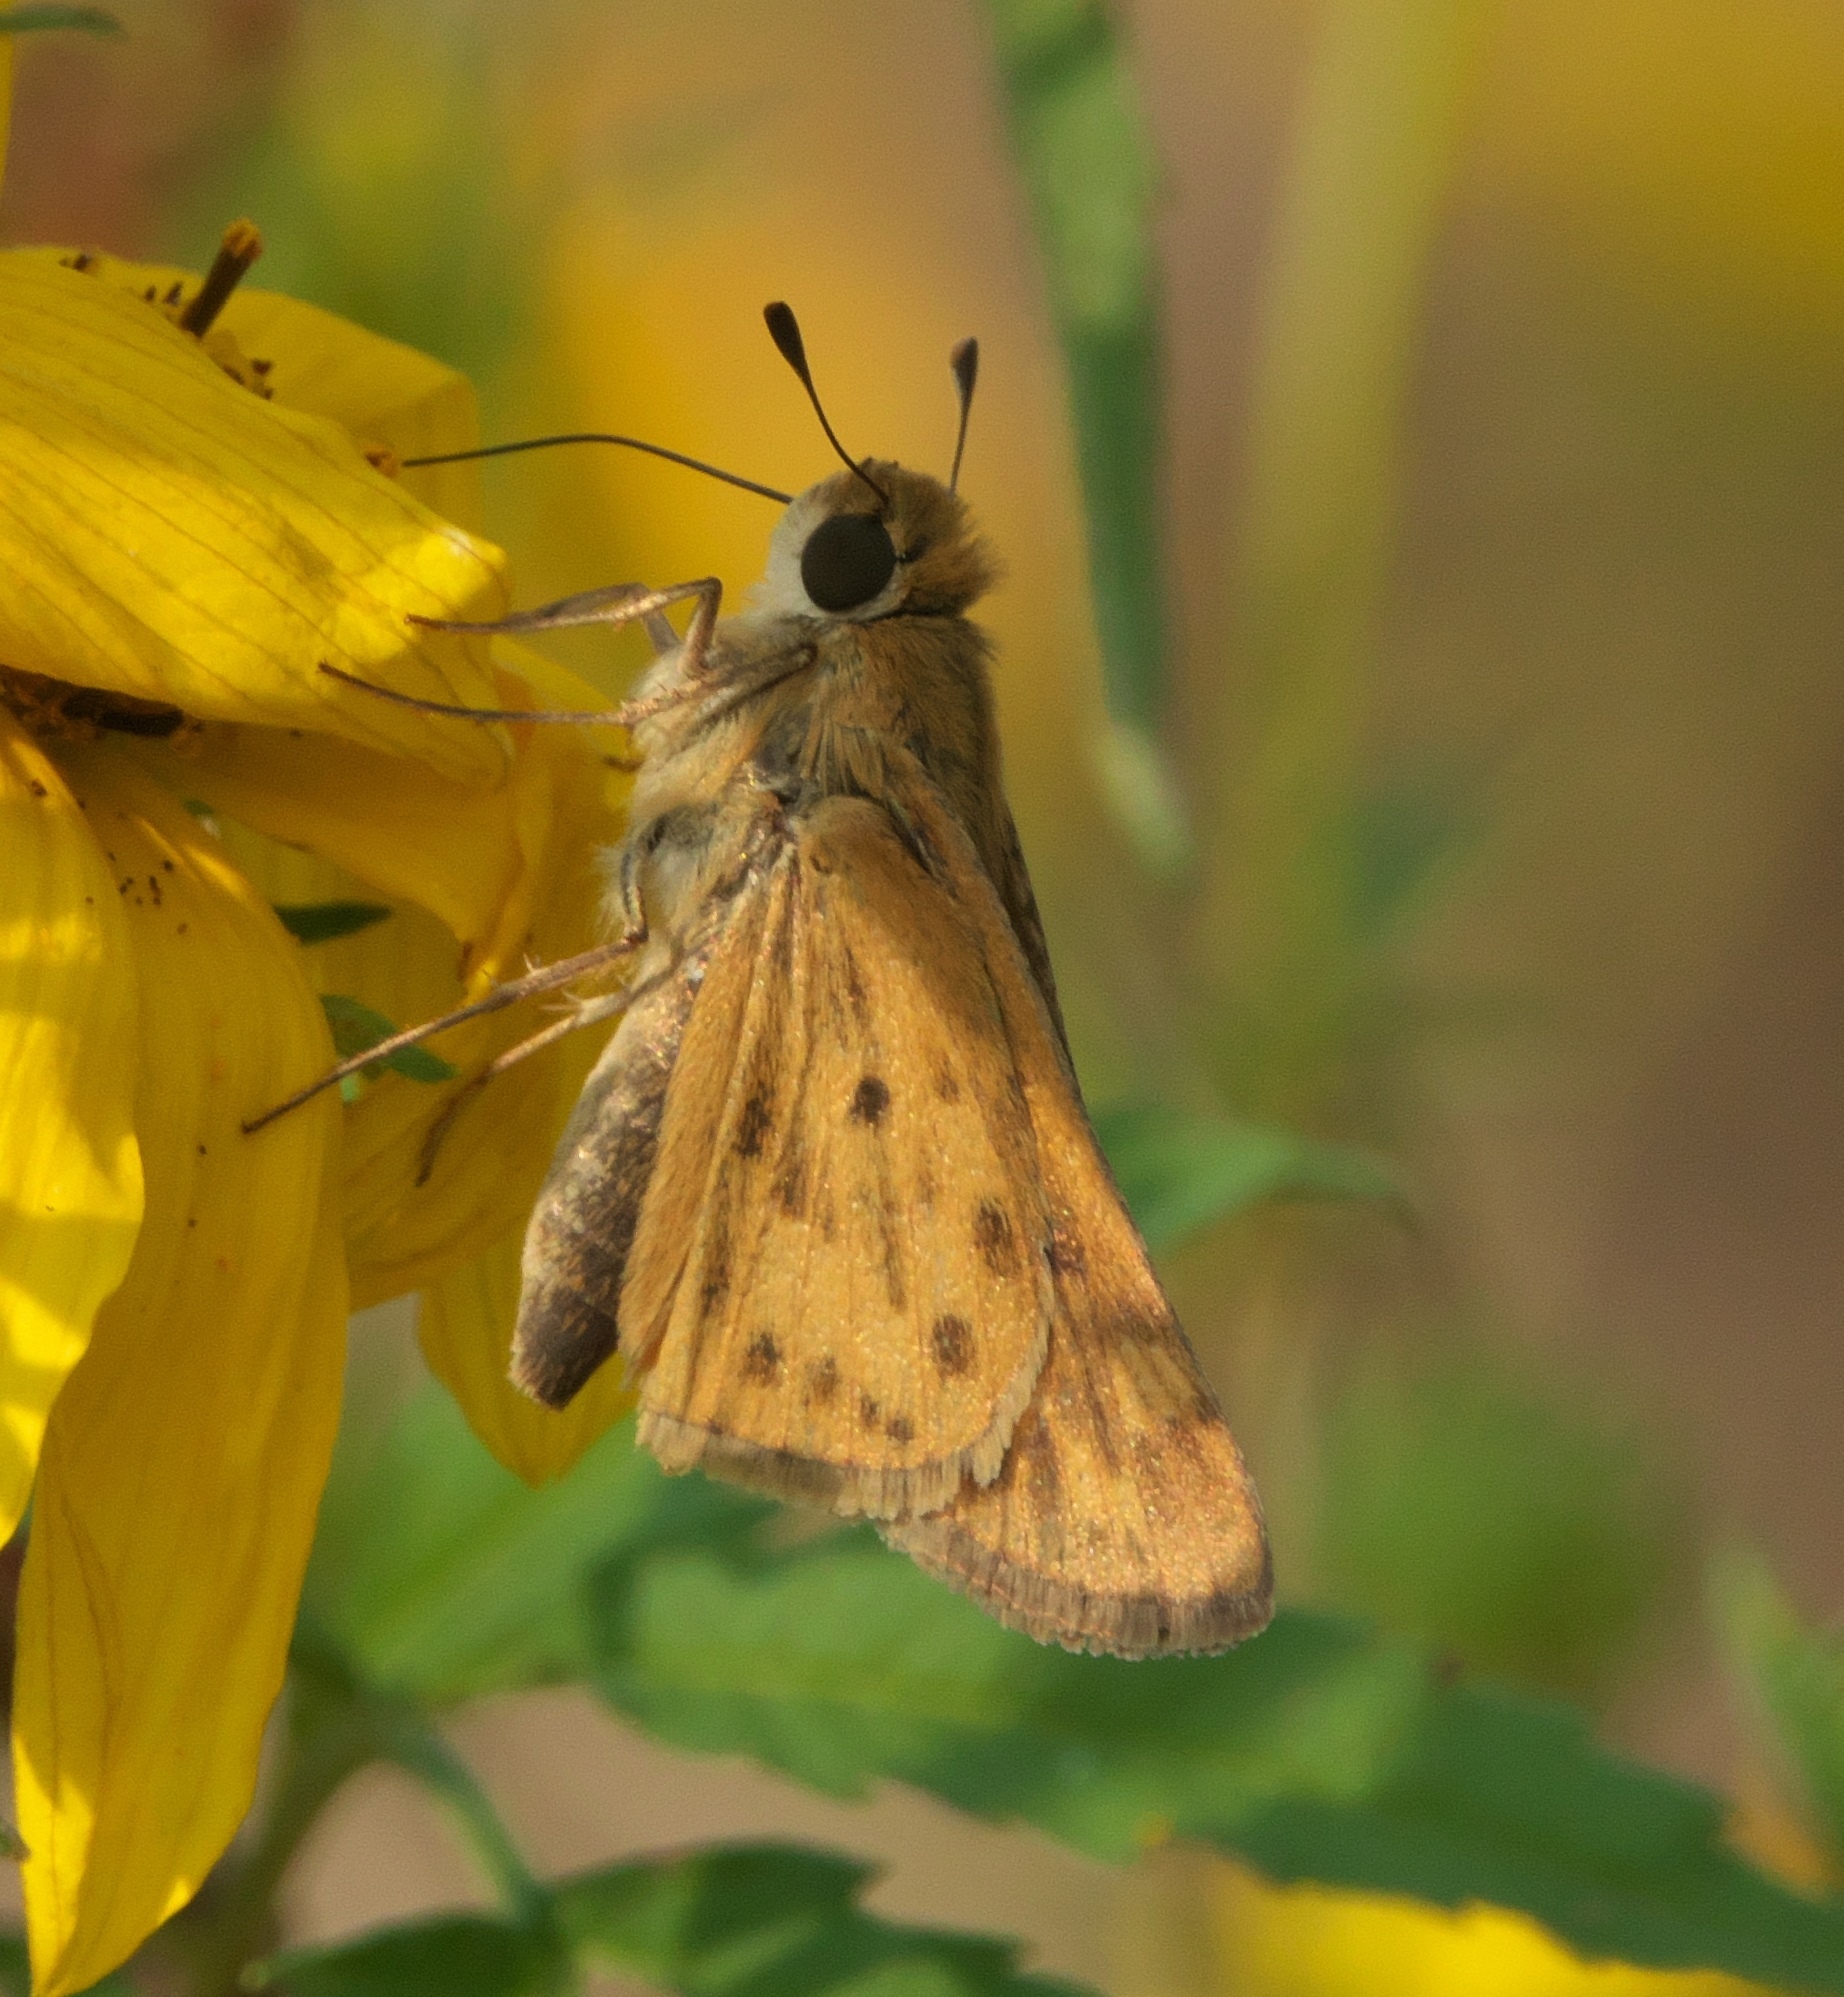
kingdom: Animalia
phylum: Arthropoda
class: Insecta
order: Lepidoptera
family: Hesperiidae
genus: Hylephila
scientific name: Hylephila phyleus
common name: Fiery skipper
